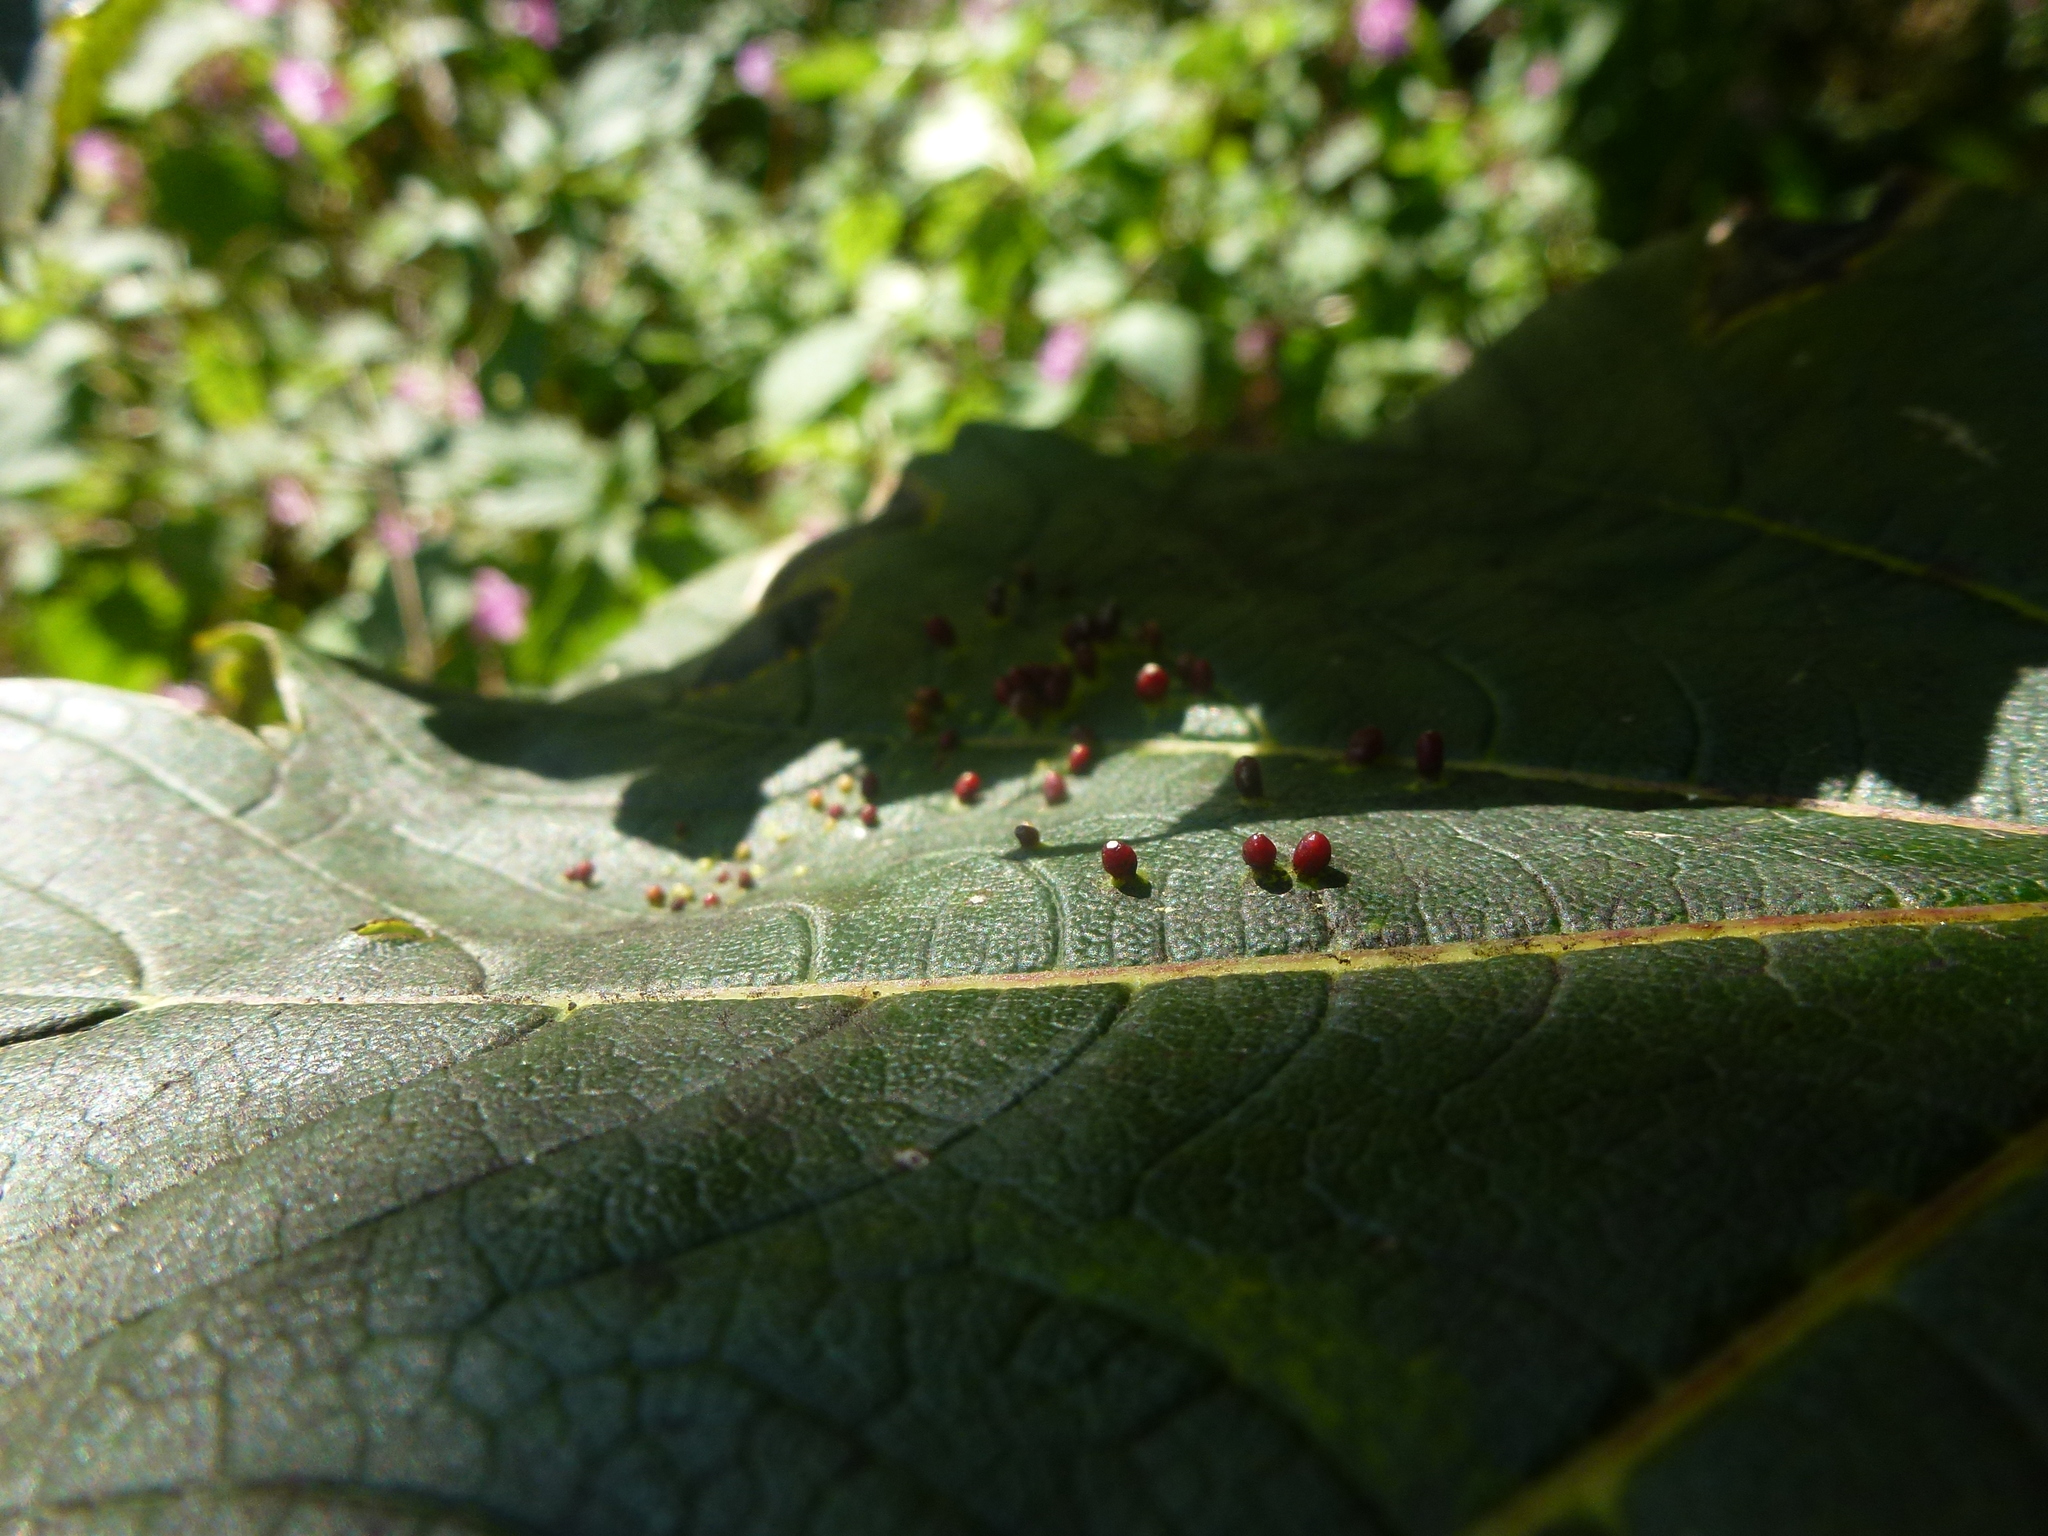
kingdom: Animalia
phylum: Arthropoda
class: Arachnida
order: Trombidiformes
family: Eriophyidae
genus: Aceria
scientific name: Aceria cephaloneus
